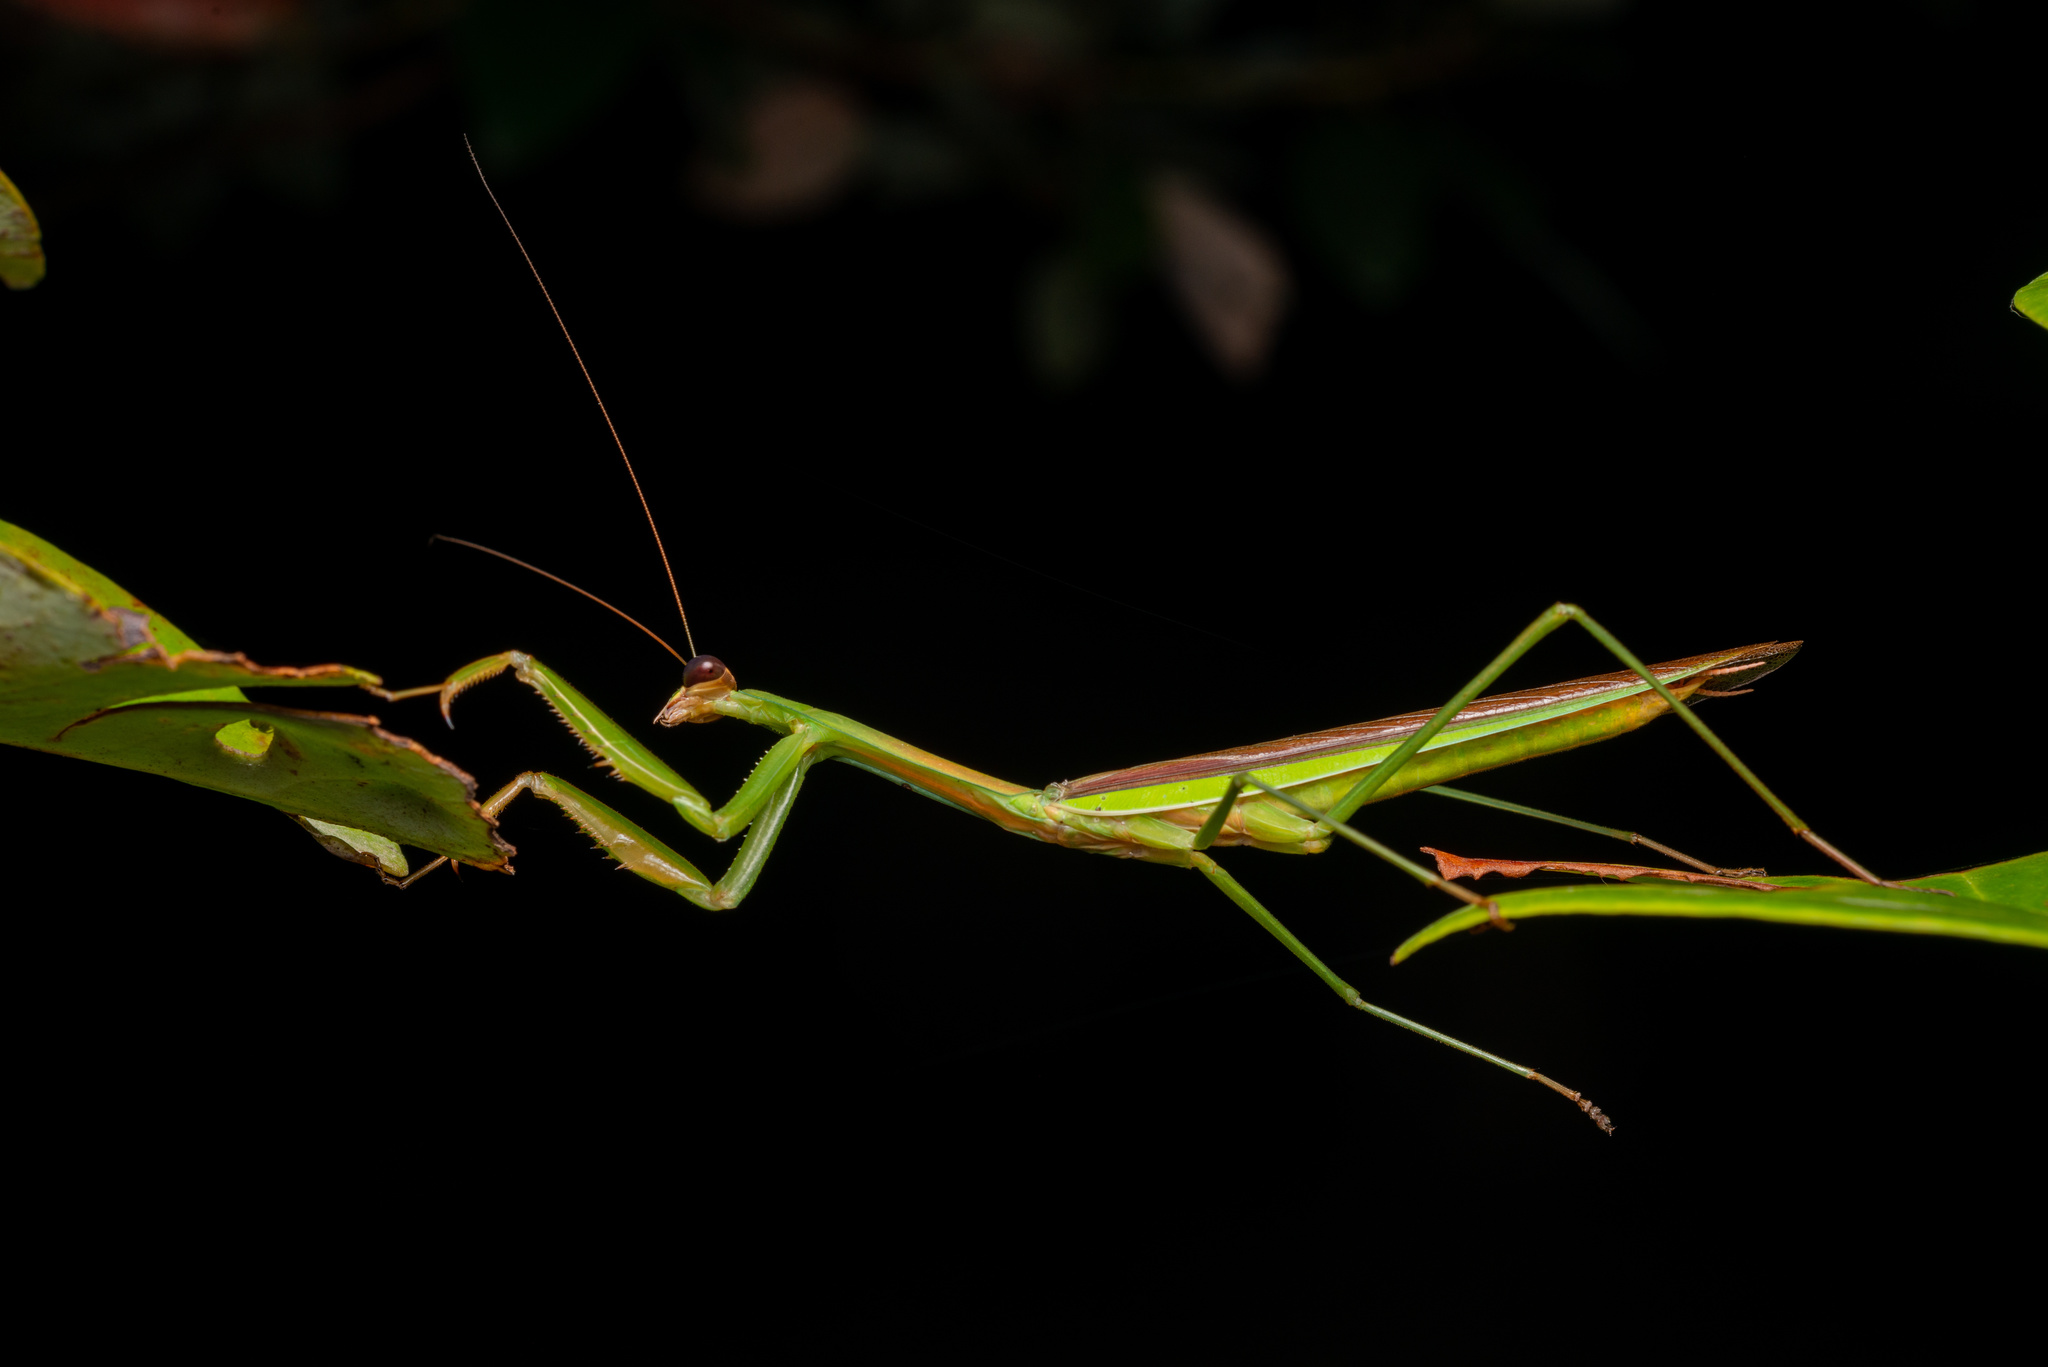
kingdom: Animalia
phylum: Arthropoda
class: Insecta
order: Mantodea
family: Mantidae
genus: Tenodera
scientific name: Tenodera sinensis
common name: Chinese mantis
